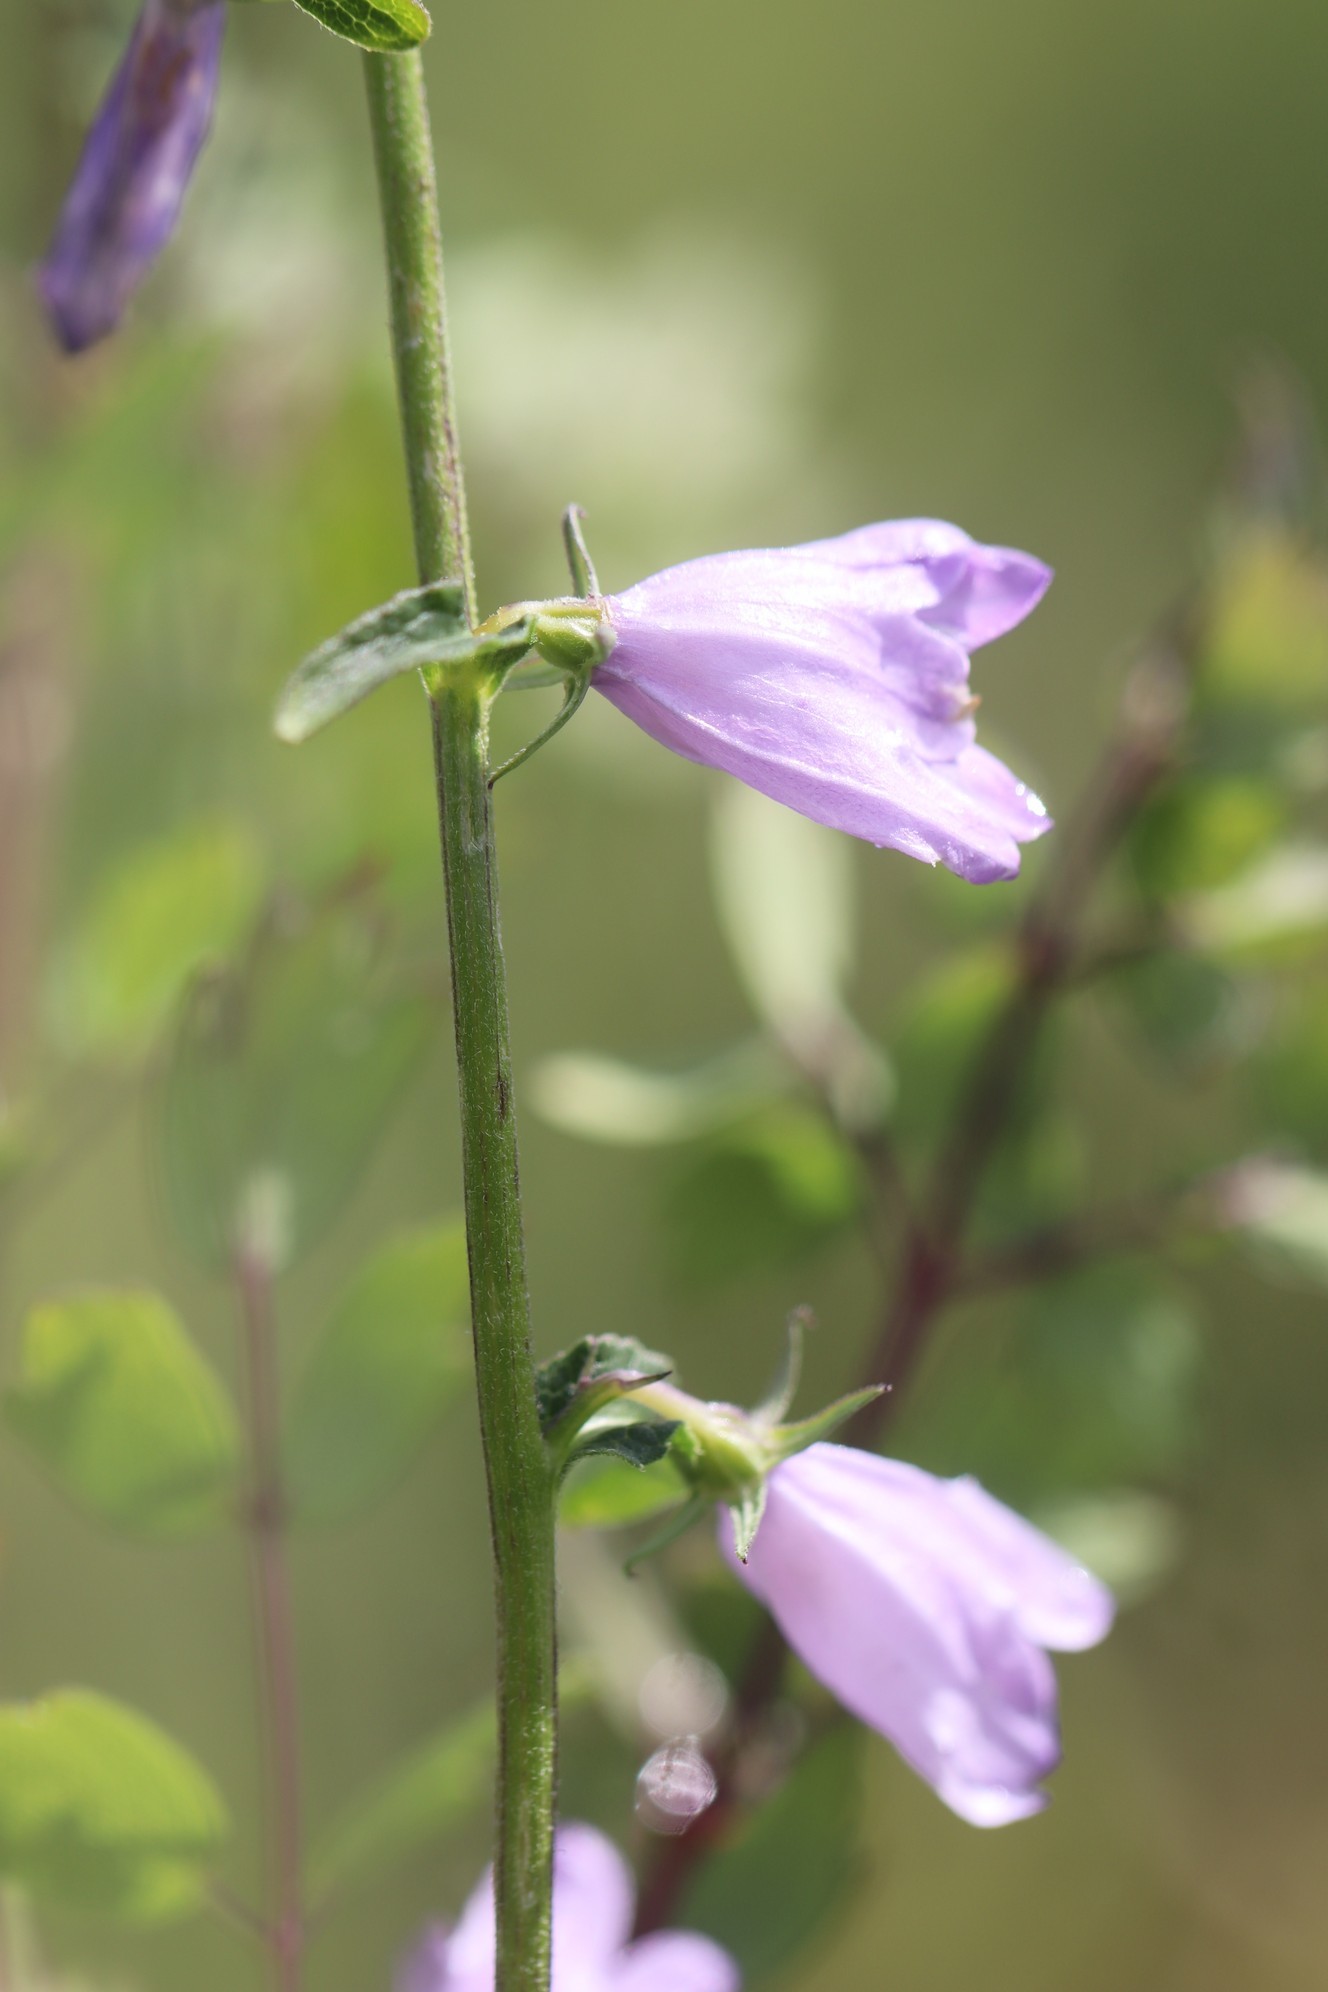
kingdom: Plantae
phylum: Tracheophyta
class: Magnoliopsida
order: Asterales
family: Campanulaceae
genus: Campanula
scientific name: Campanula bononiensis
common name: Pale bellflower
